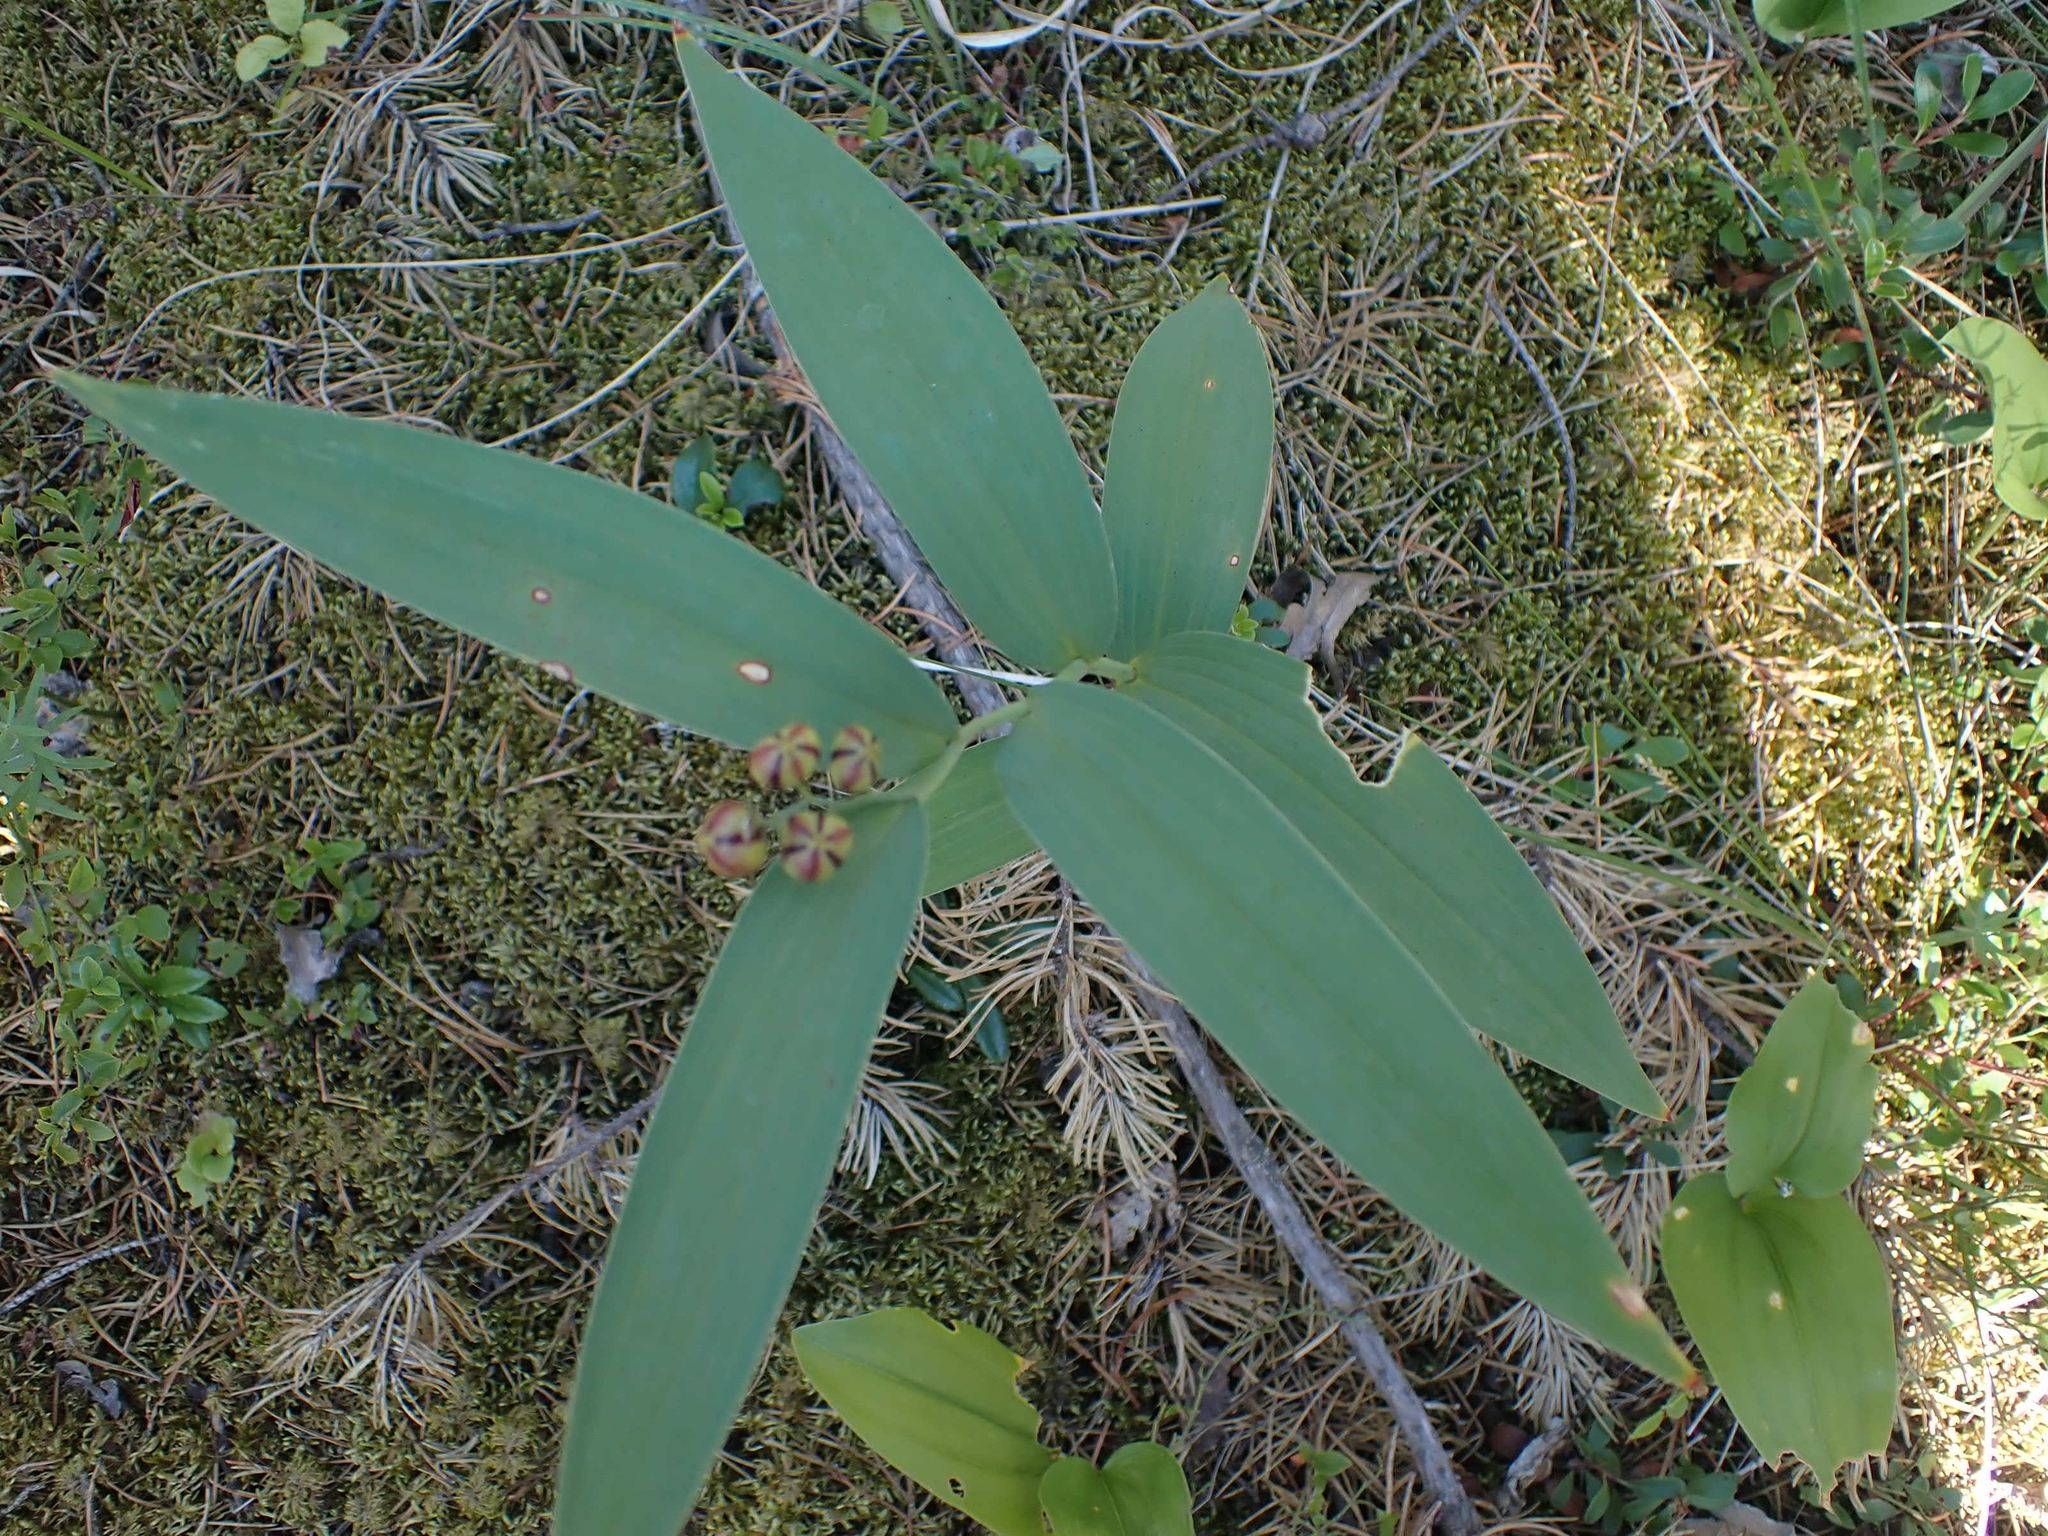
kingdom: Plantae
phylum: Tracheophyta
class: Liliopsida
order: Asparagales
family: Asparagaceae
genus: Maianthemum
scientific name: Maianthemum stellatum
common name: Little false solomon's seal
